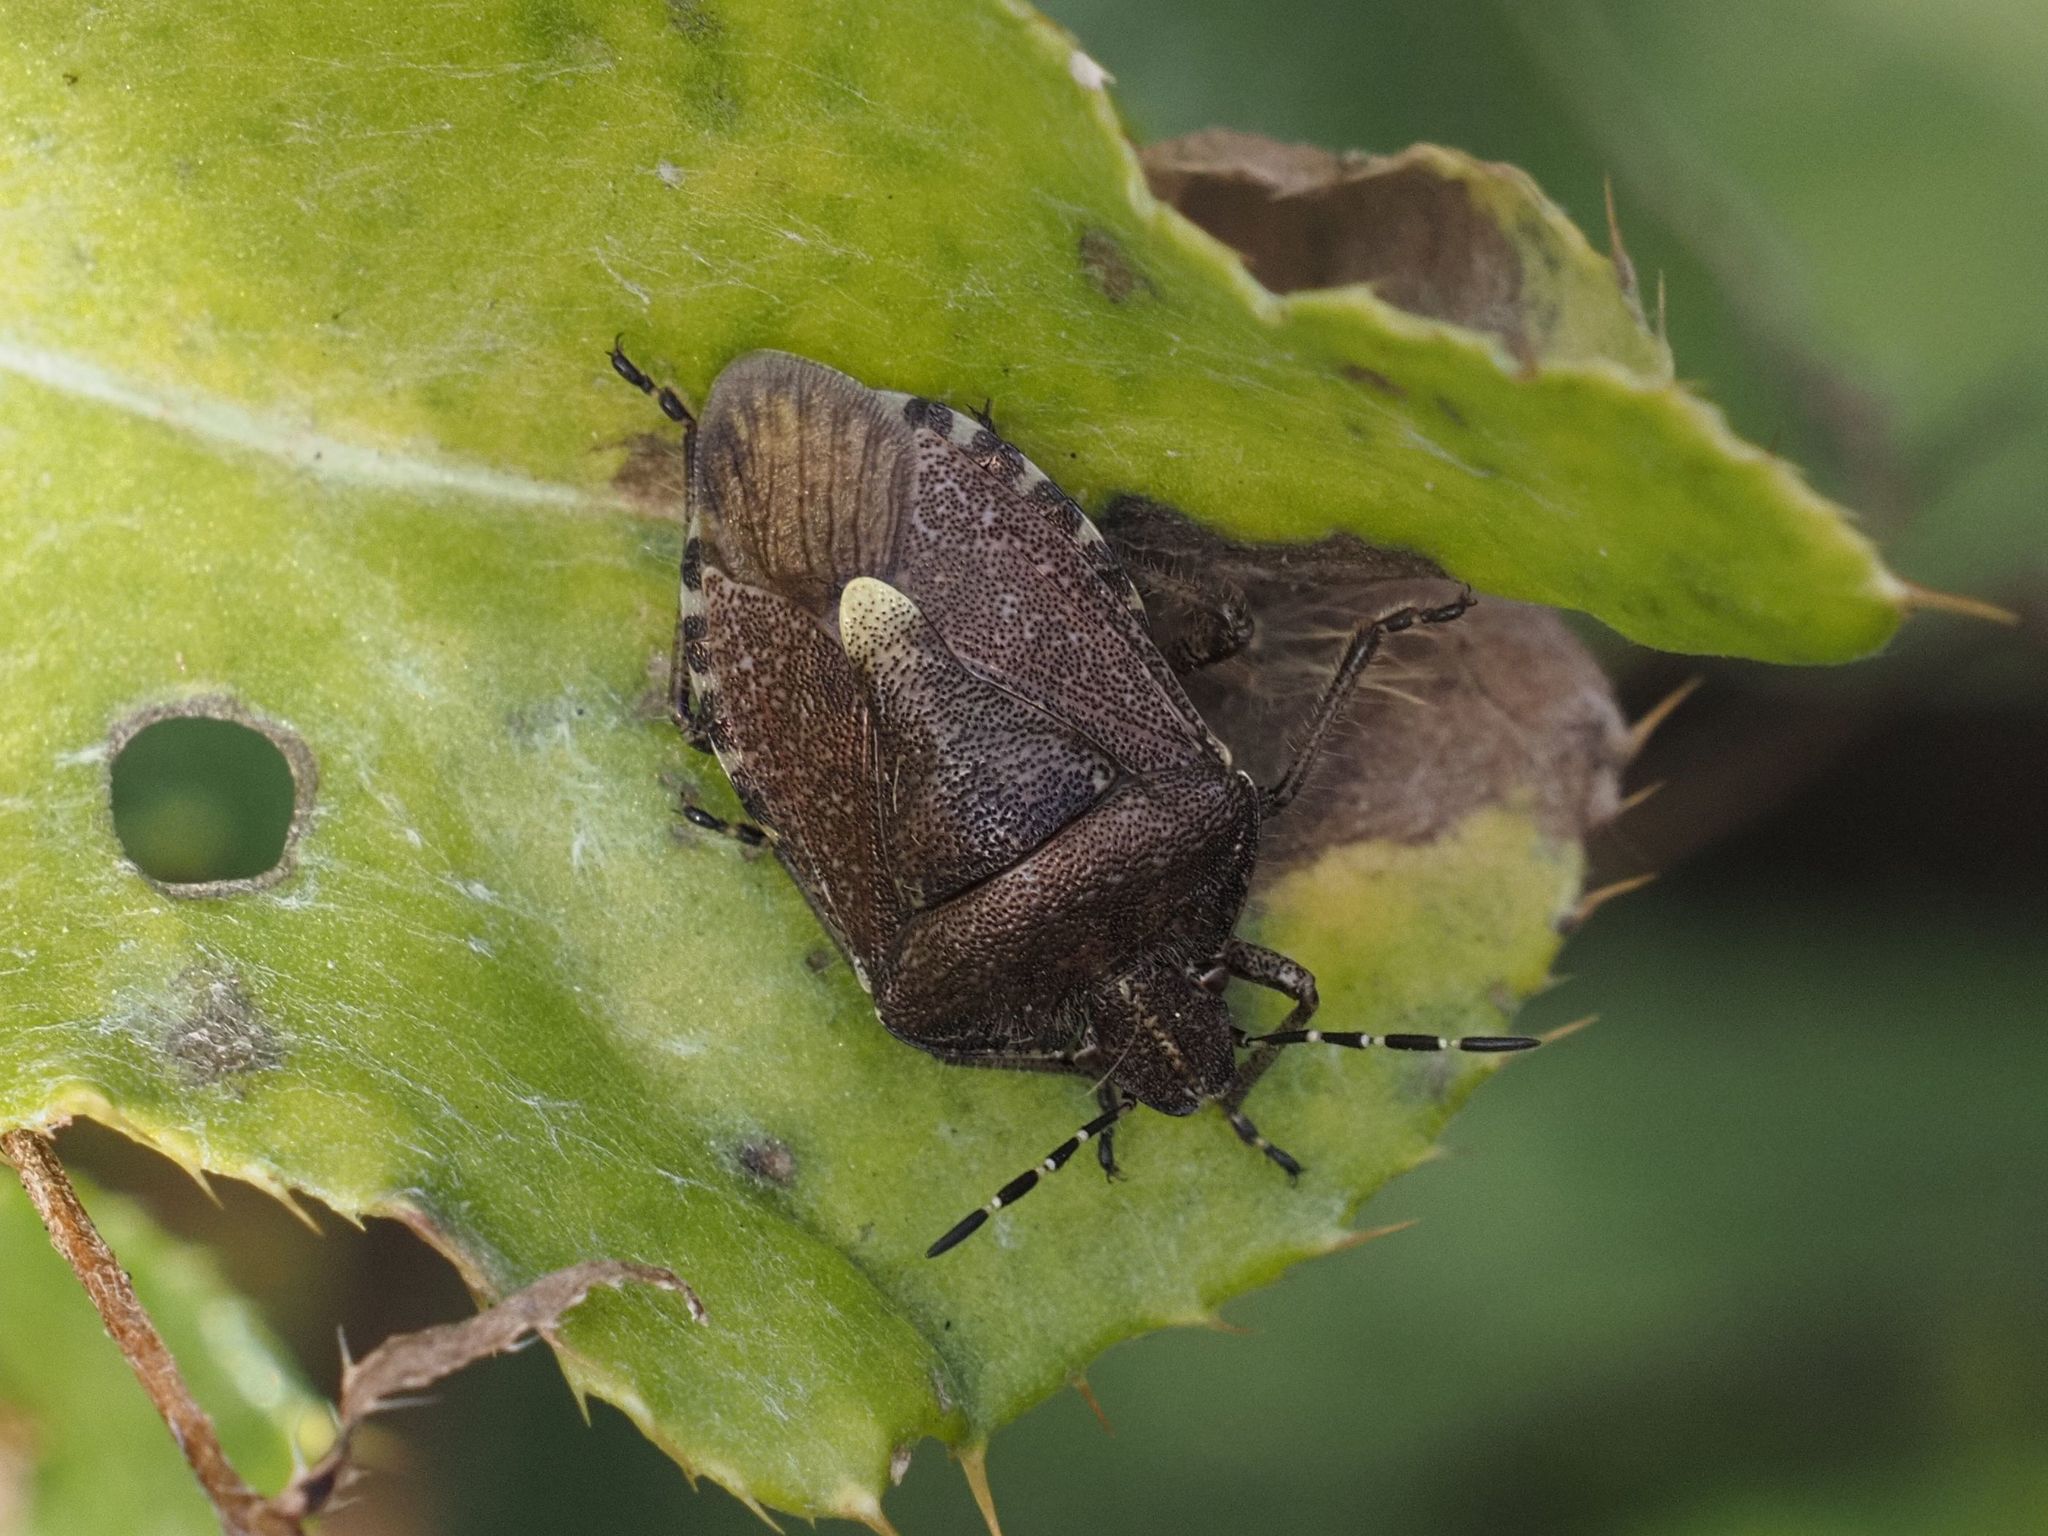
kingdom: Animalia
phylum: Arthropoda
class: Insecta
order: Hemiptera
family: Pentatomidae
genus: Dolycoris
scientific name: Dolycoris baccarum
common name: Sloe bug
